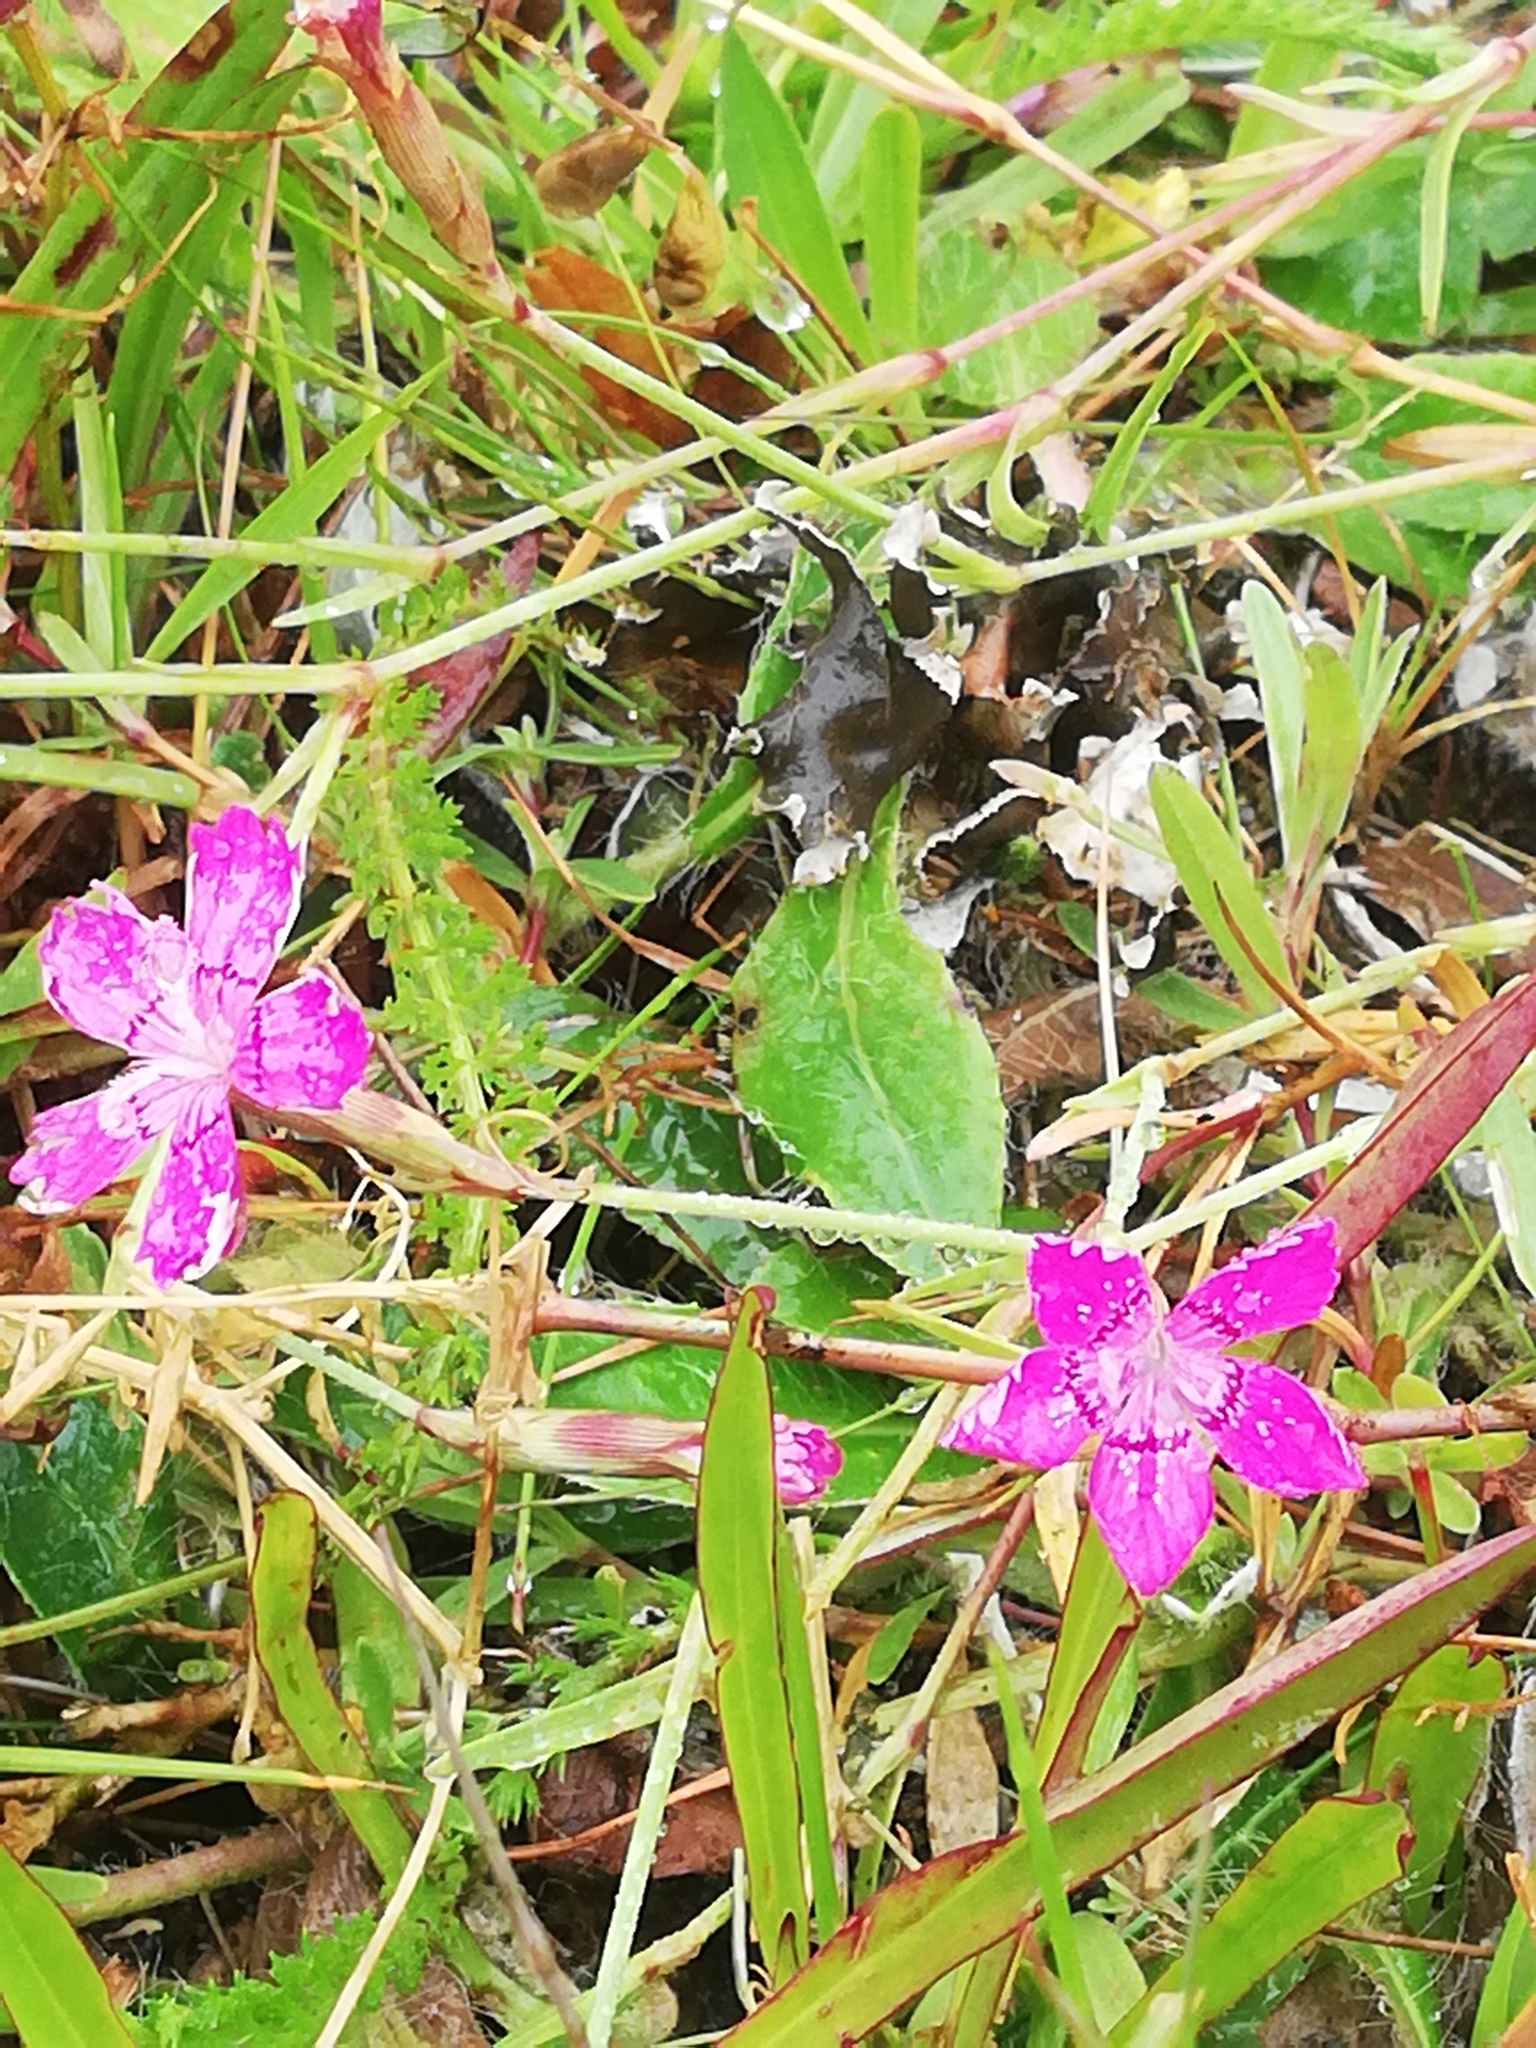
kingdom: Plantae
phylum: Tracheophyta
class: Magnoliopsida
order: Caryophyllales
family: Caryophyllaceae
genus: Dianthus
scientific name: Dianthus deltoides
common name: Maiden pink
